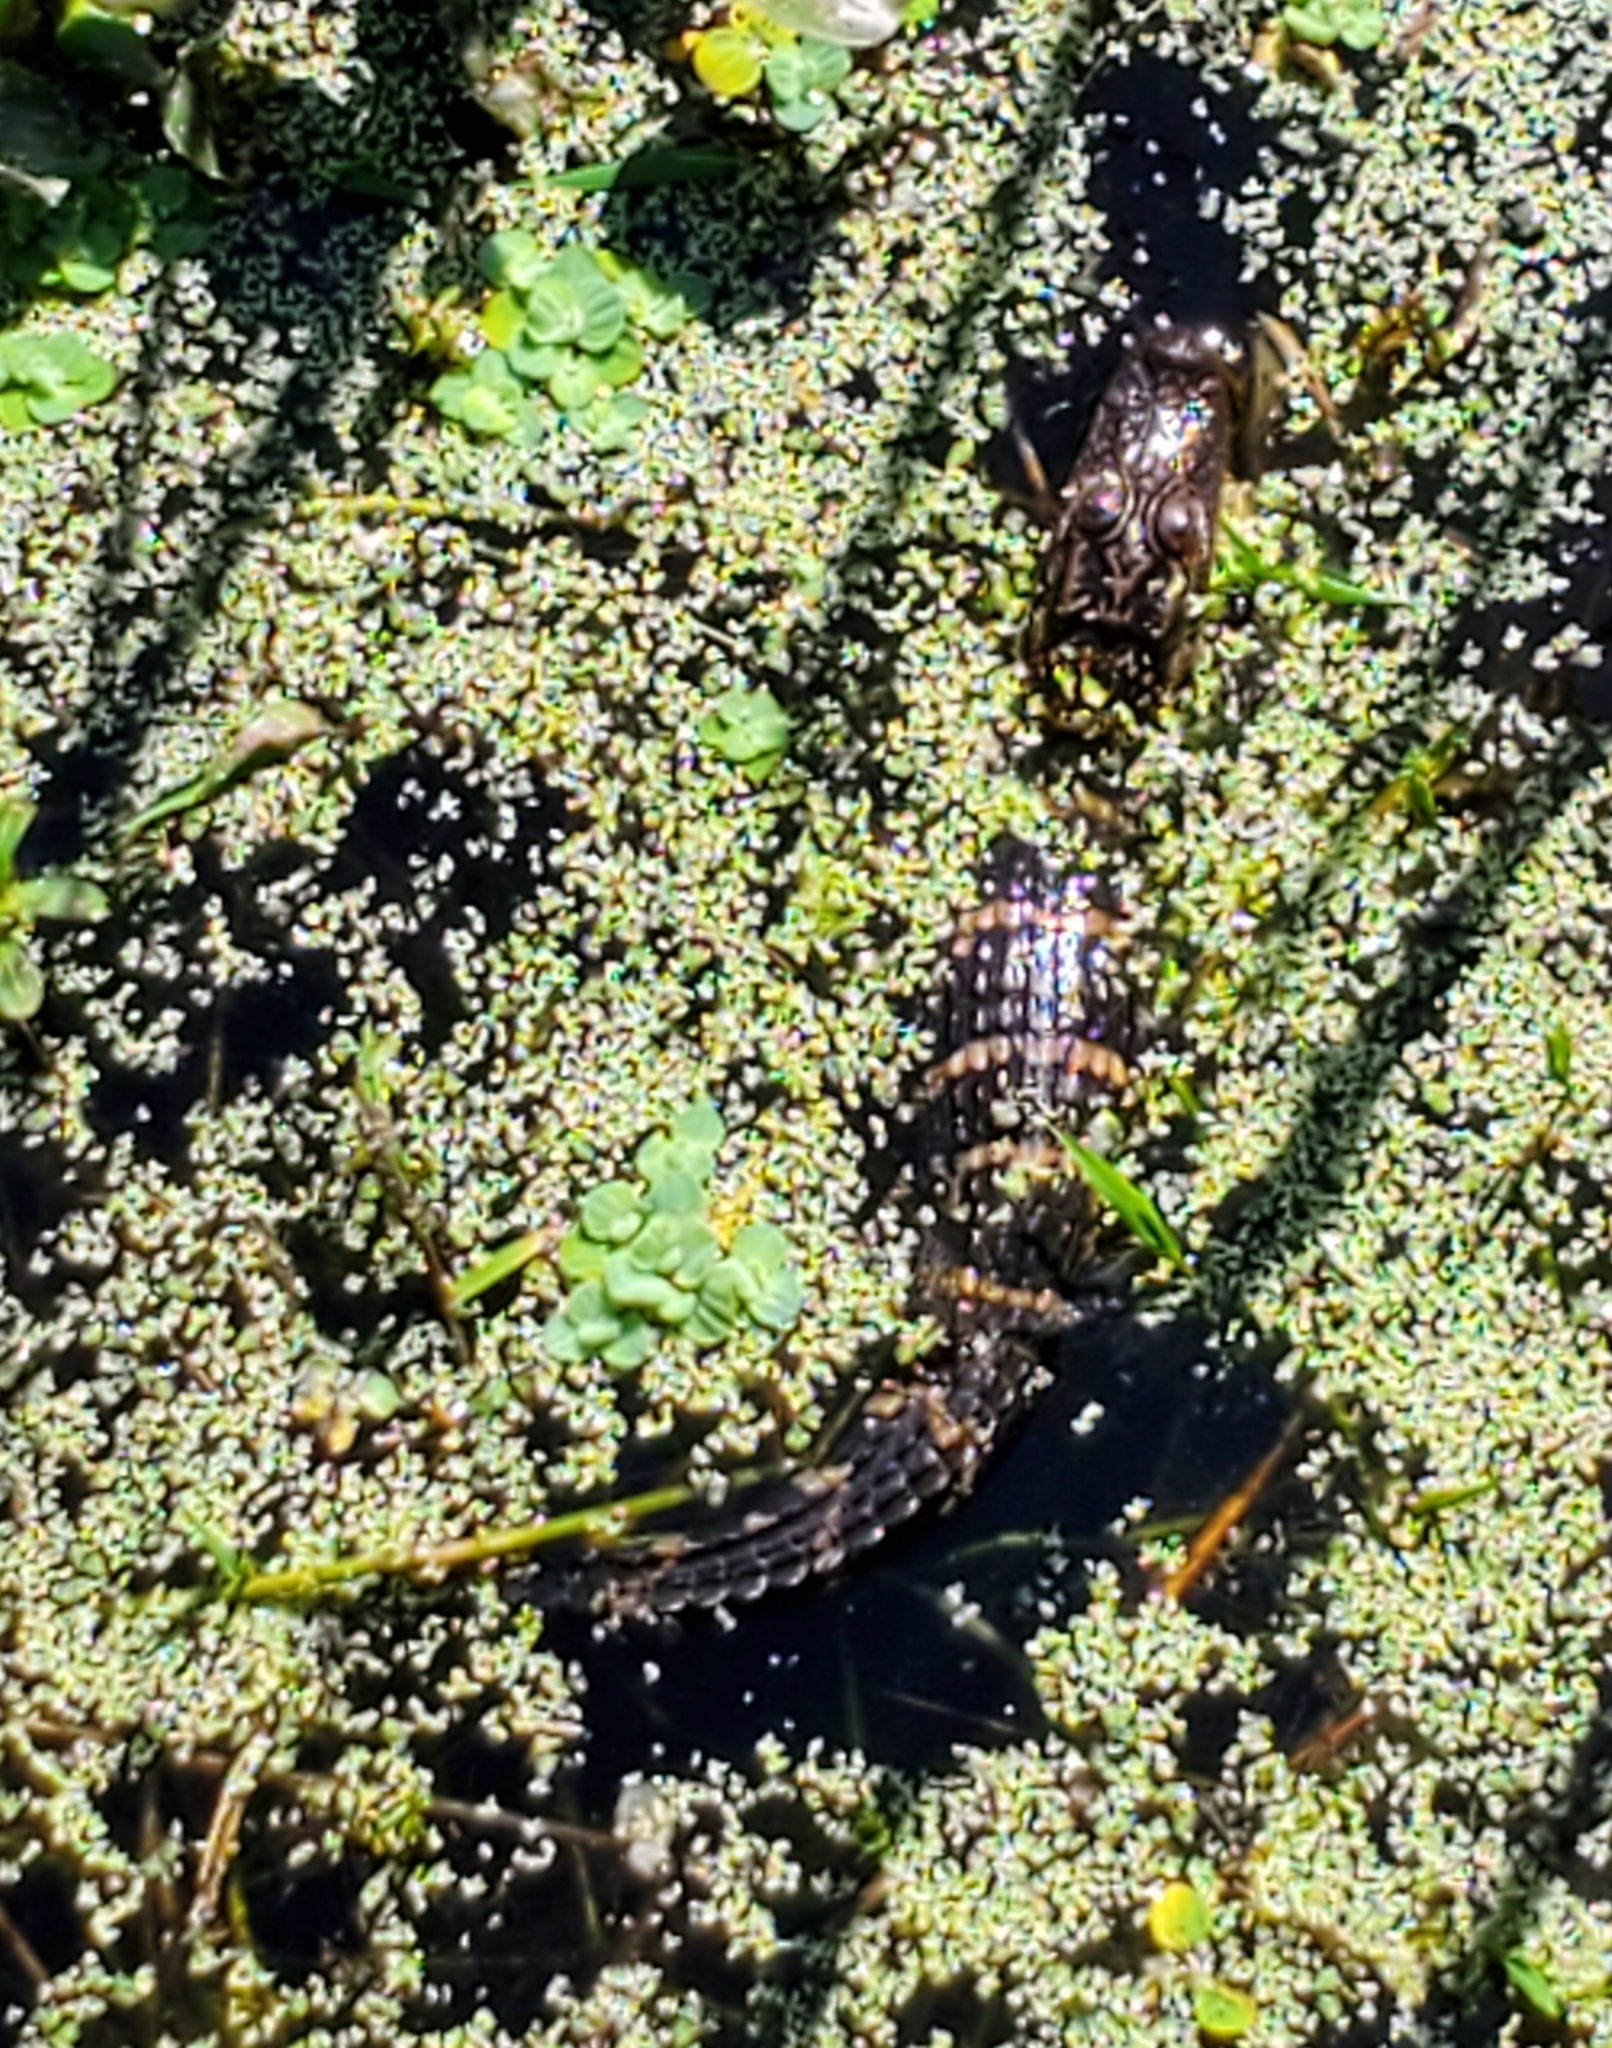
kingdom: Animalia
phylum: Chordata
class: Crocodylia
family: Alligatoridae
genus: Alligator
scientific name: Alligator mississippiensis
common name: American alligator
